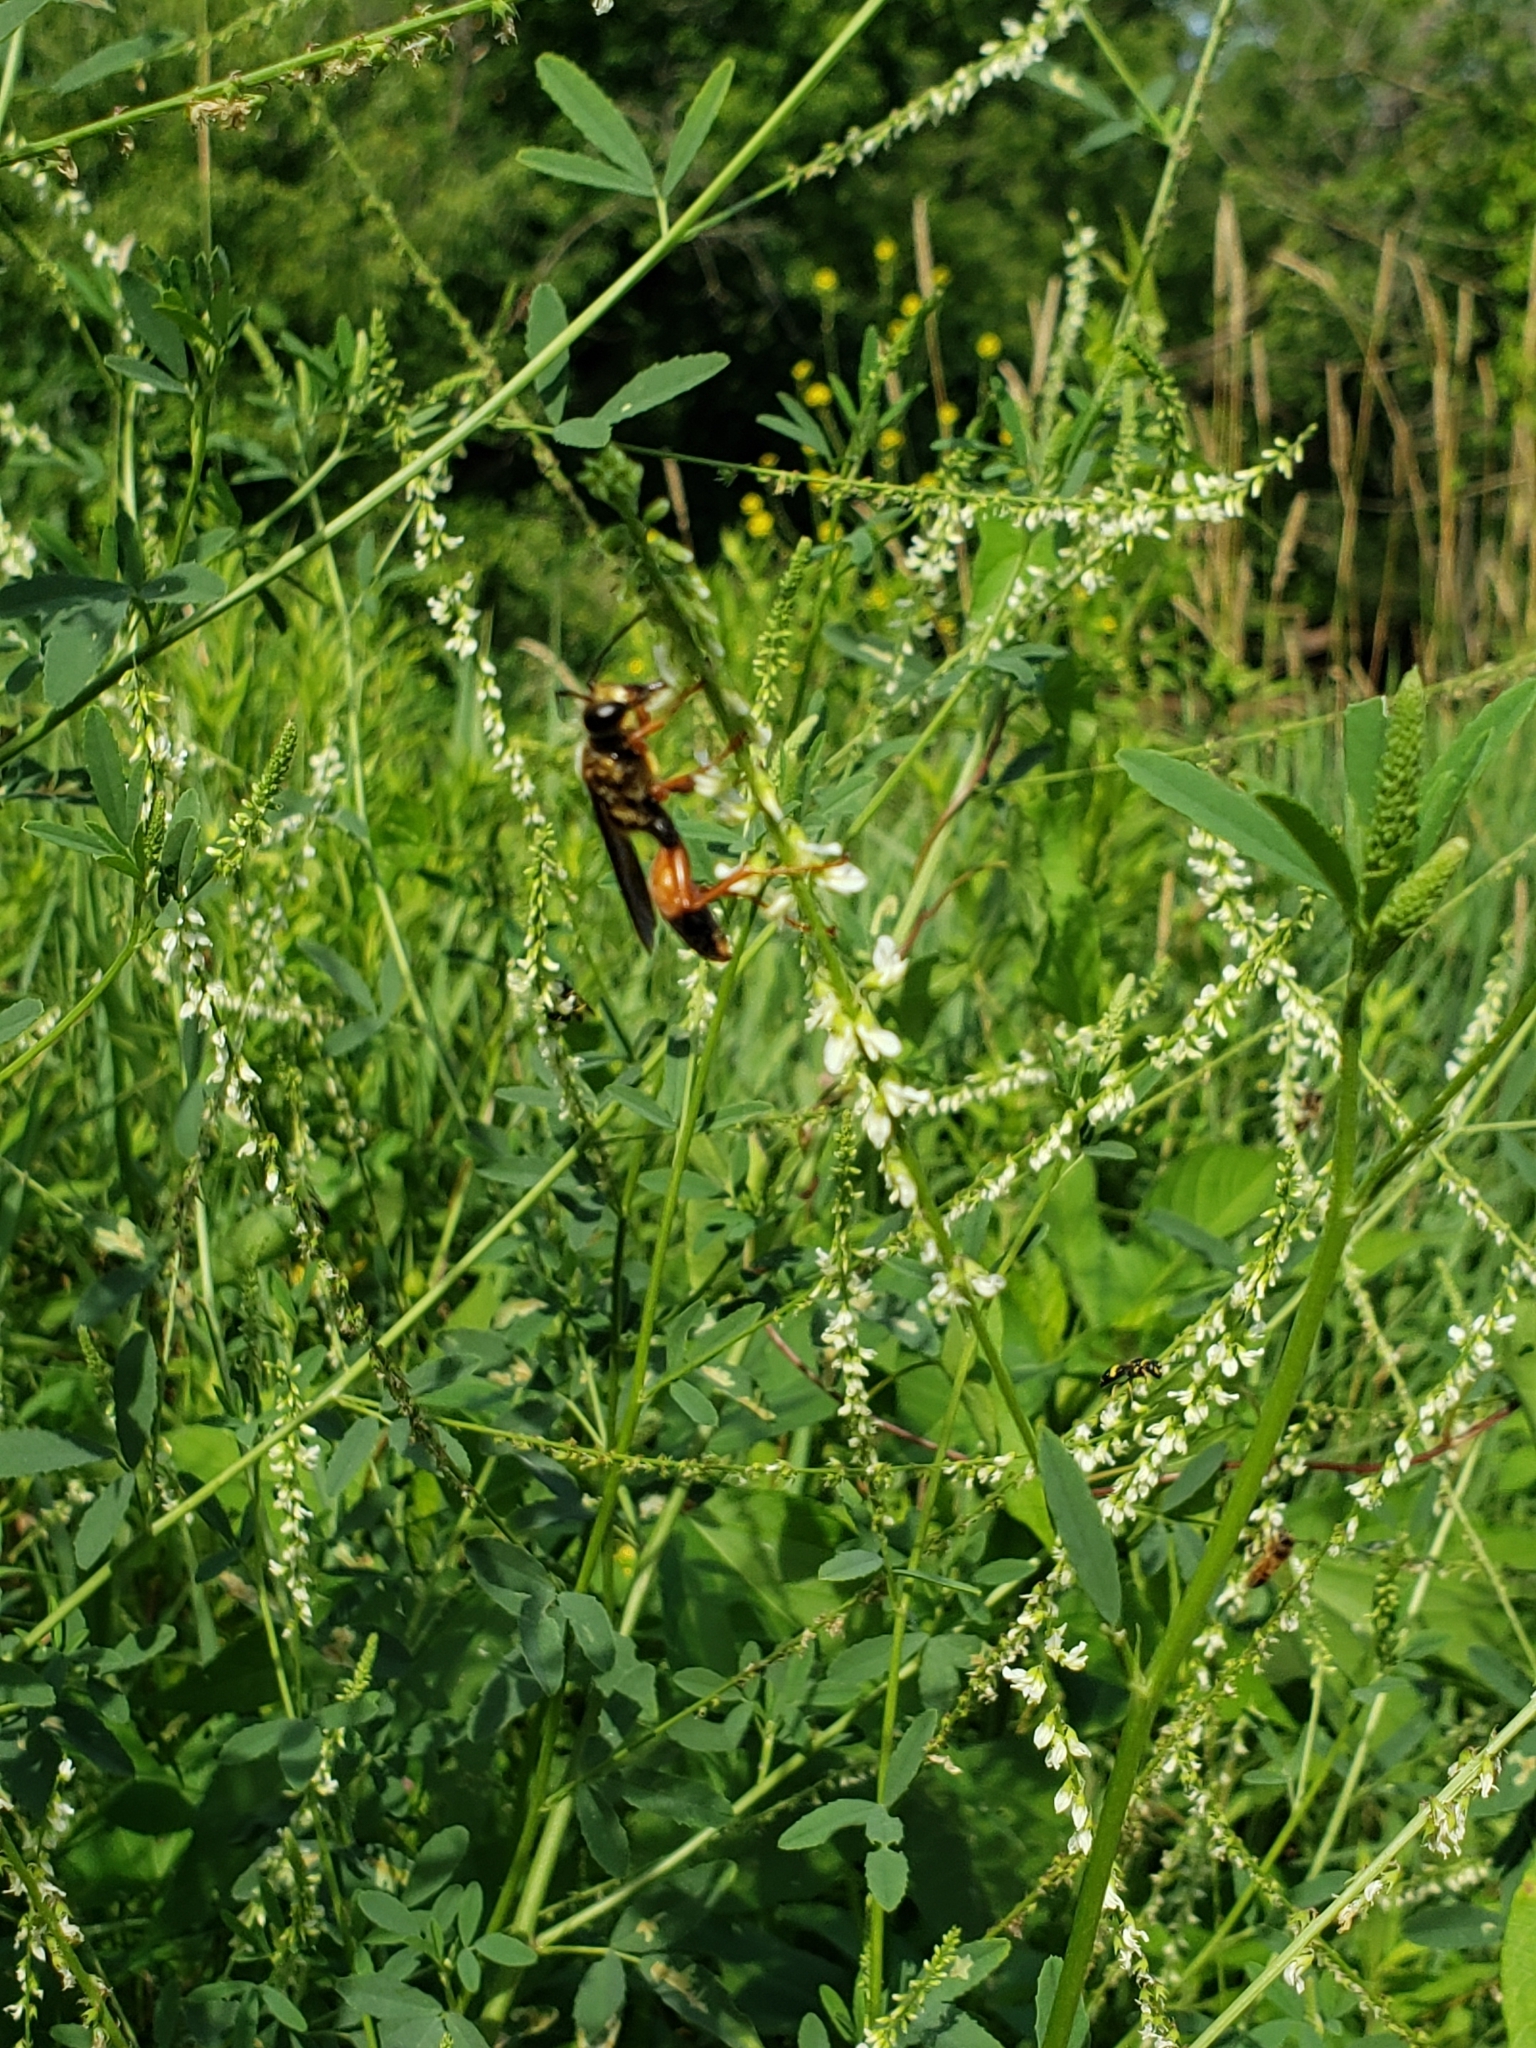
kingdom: Animalia
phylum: Arthropoda
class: Insecta
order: Hymenoptera
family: Sphecidae
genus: Sphex
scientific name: Sphex ichneumoneus
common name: Great golden digger wasp
